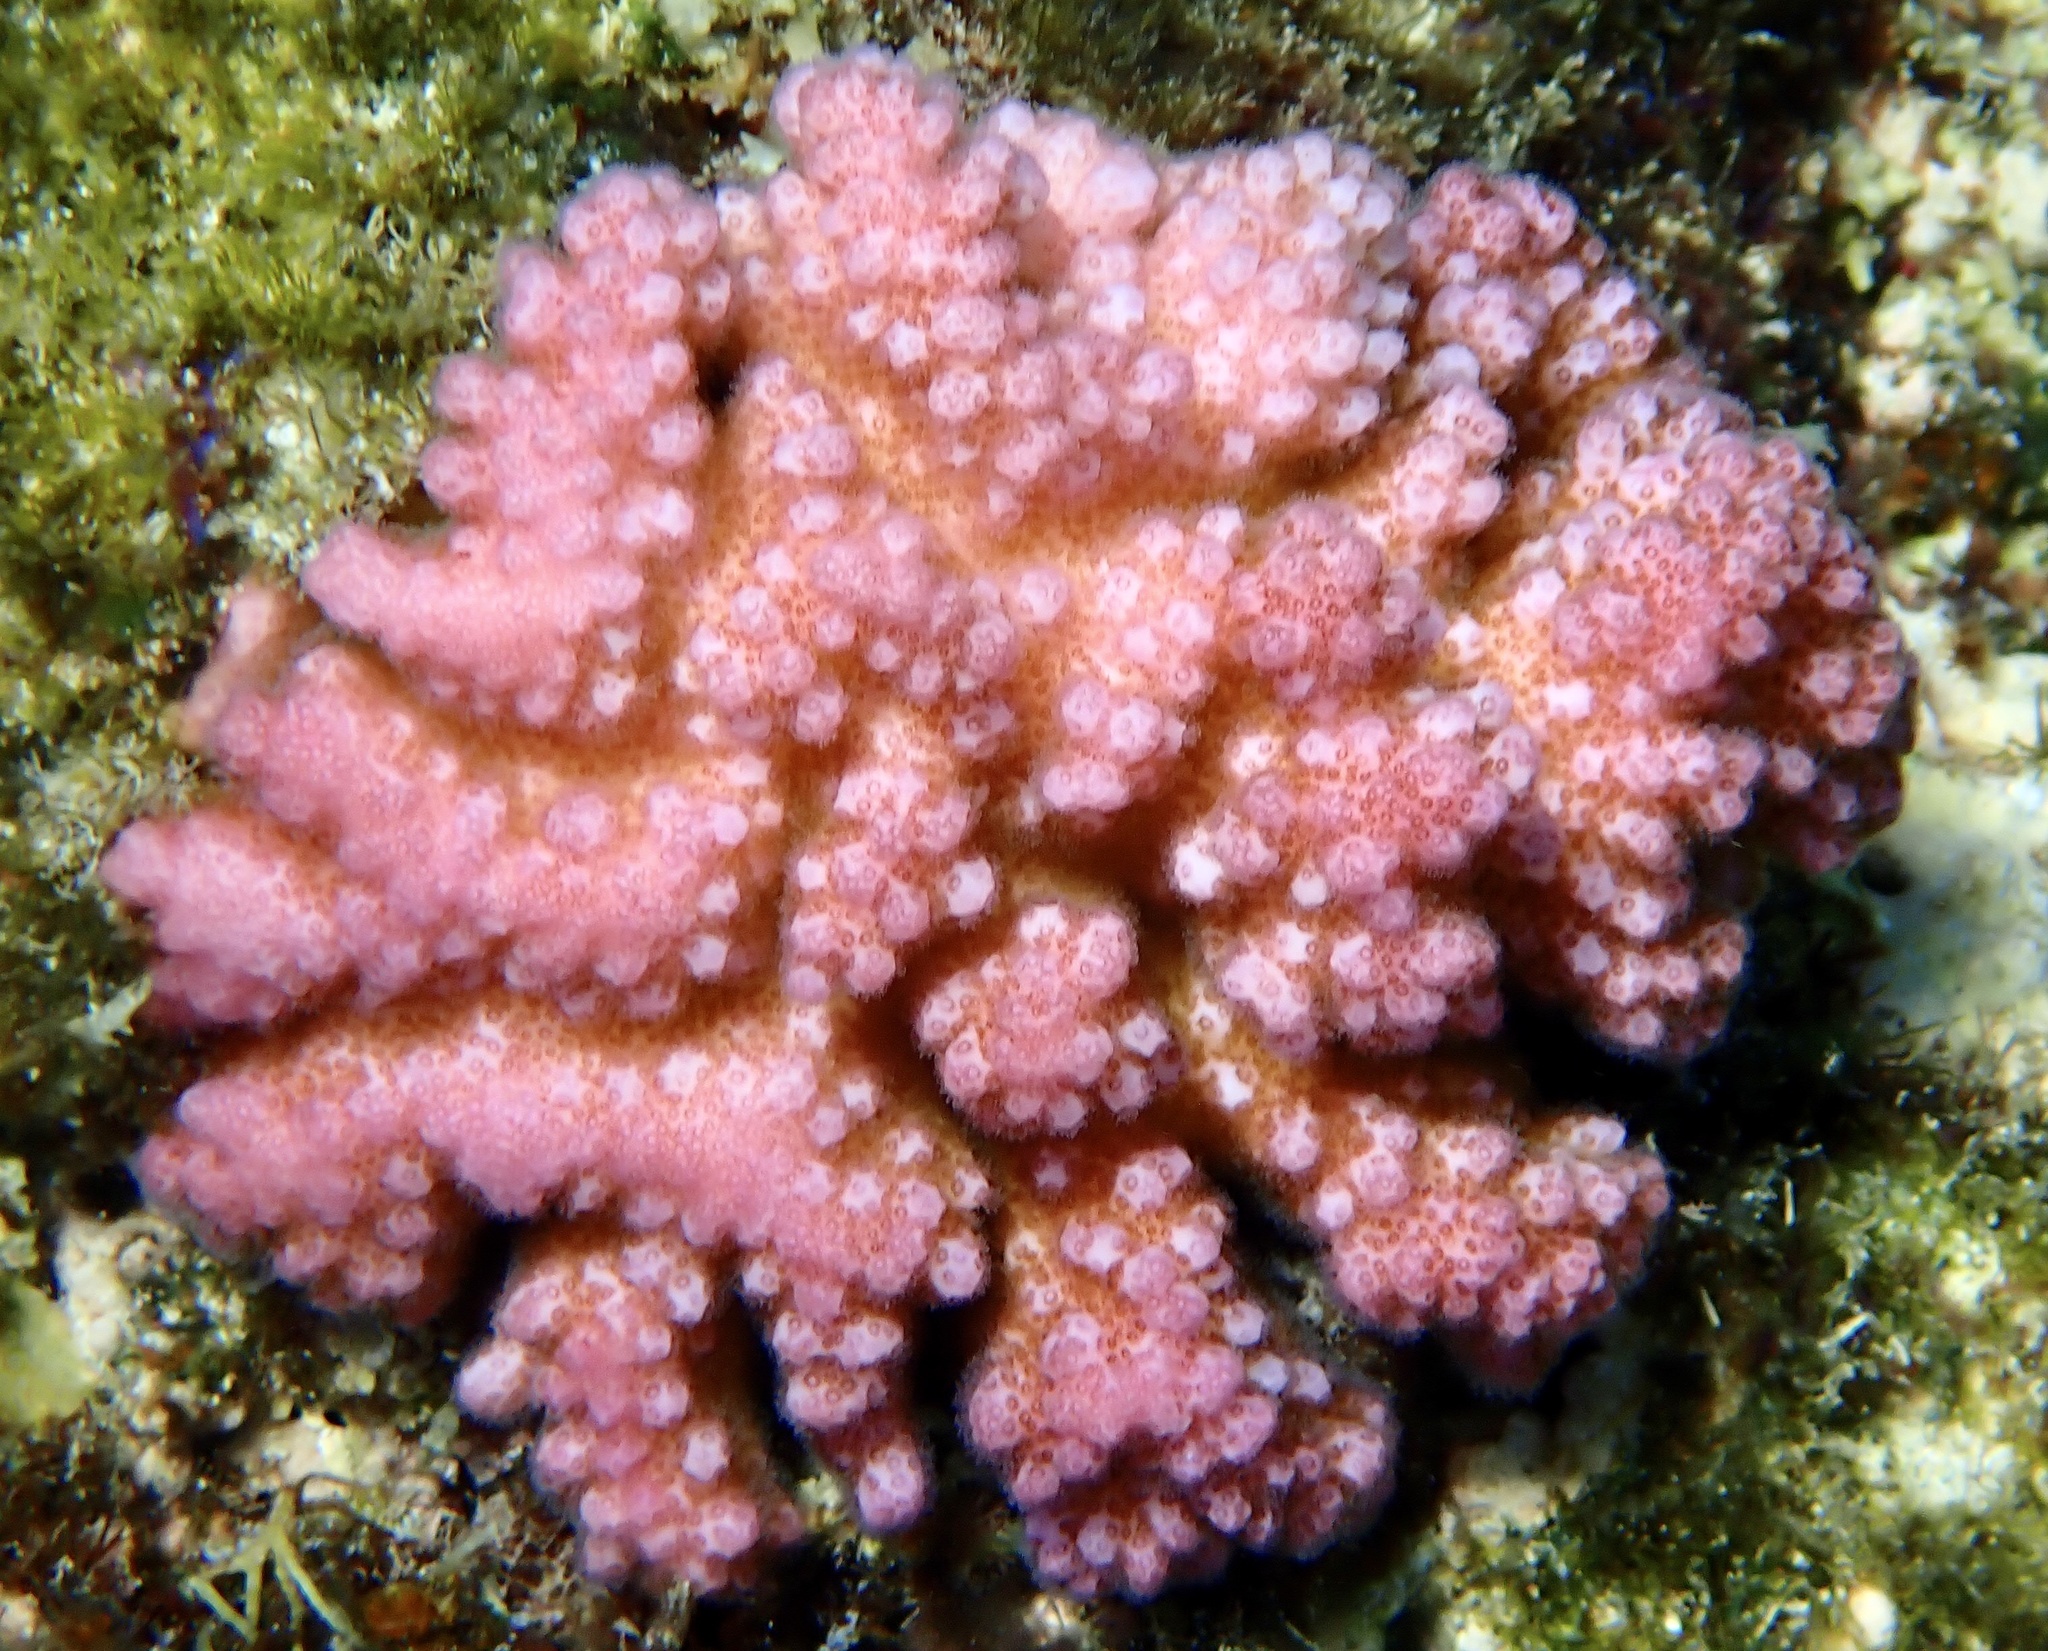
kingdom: Animalia
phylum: Cnidaria
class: Anthozoa
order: Scleractinia
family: Pocilloporidae
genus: Pocillopora
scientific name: Pocillopora verrucosa
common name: Cauliflower coral
